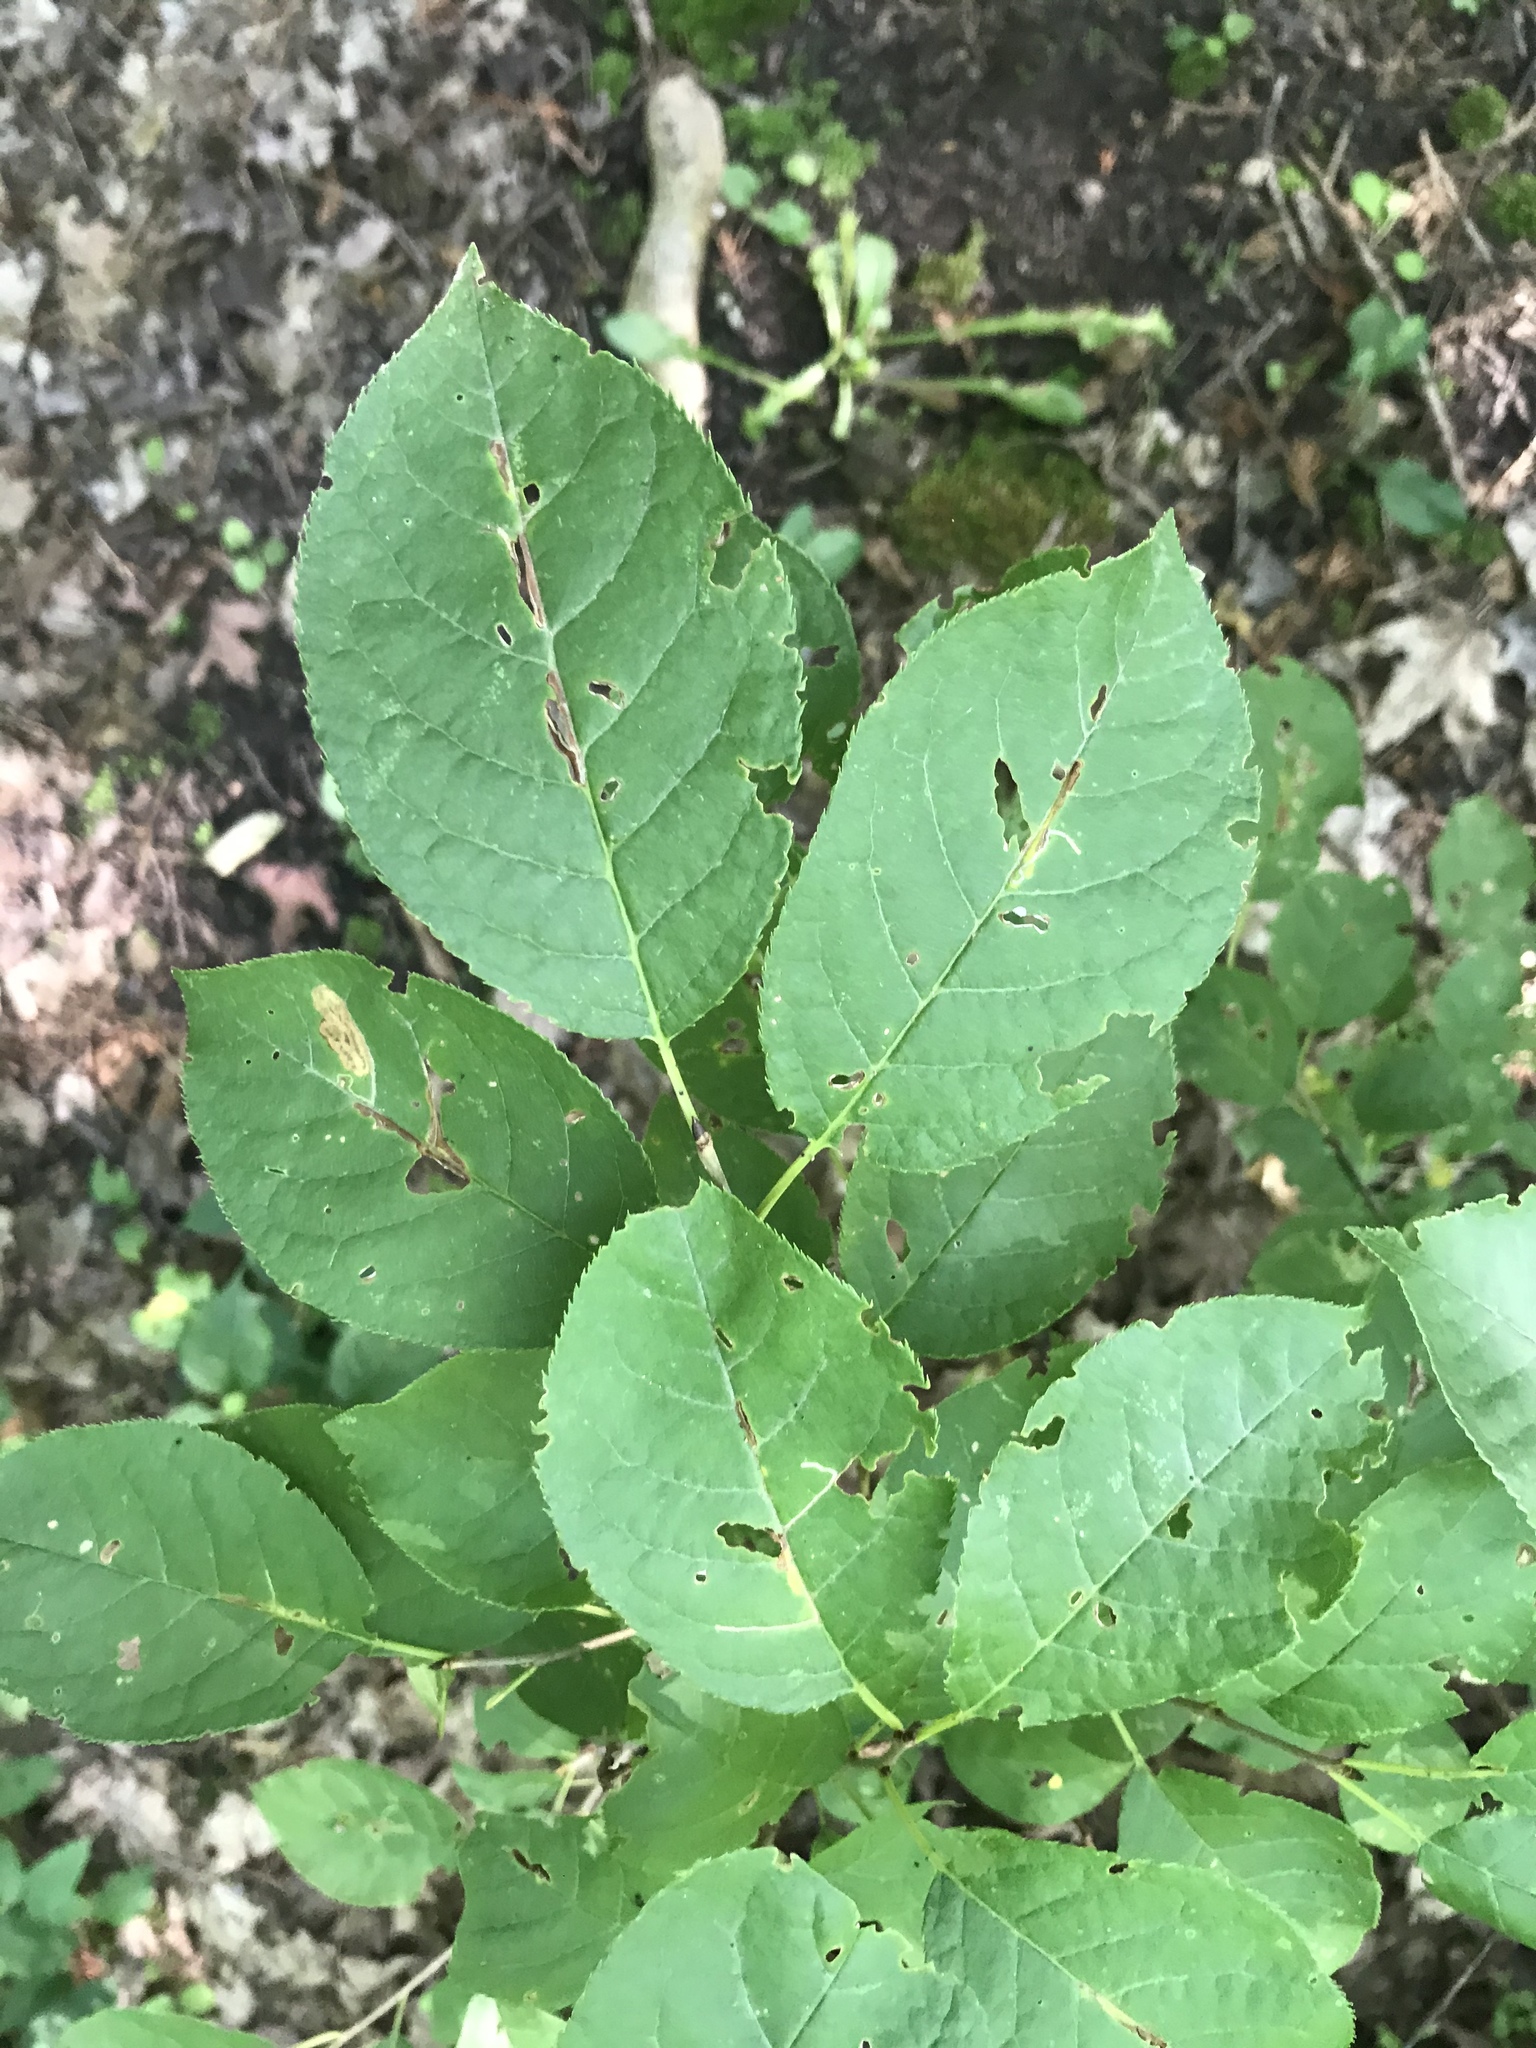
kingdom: Plantae
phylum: Tracheophyta
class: Magnoliopsida
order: Rosales
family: Rosaceae
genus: Prunus
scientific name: Prunus virginiana
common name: Chokecherry
